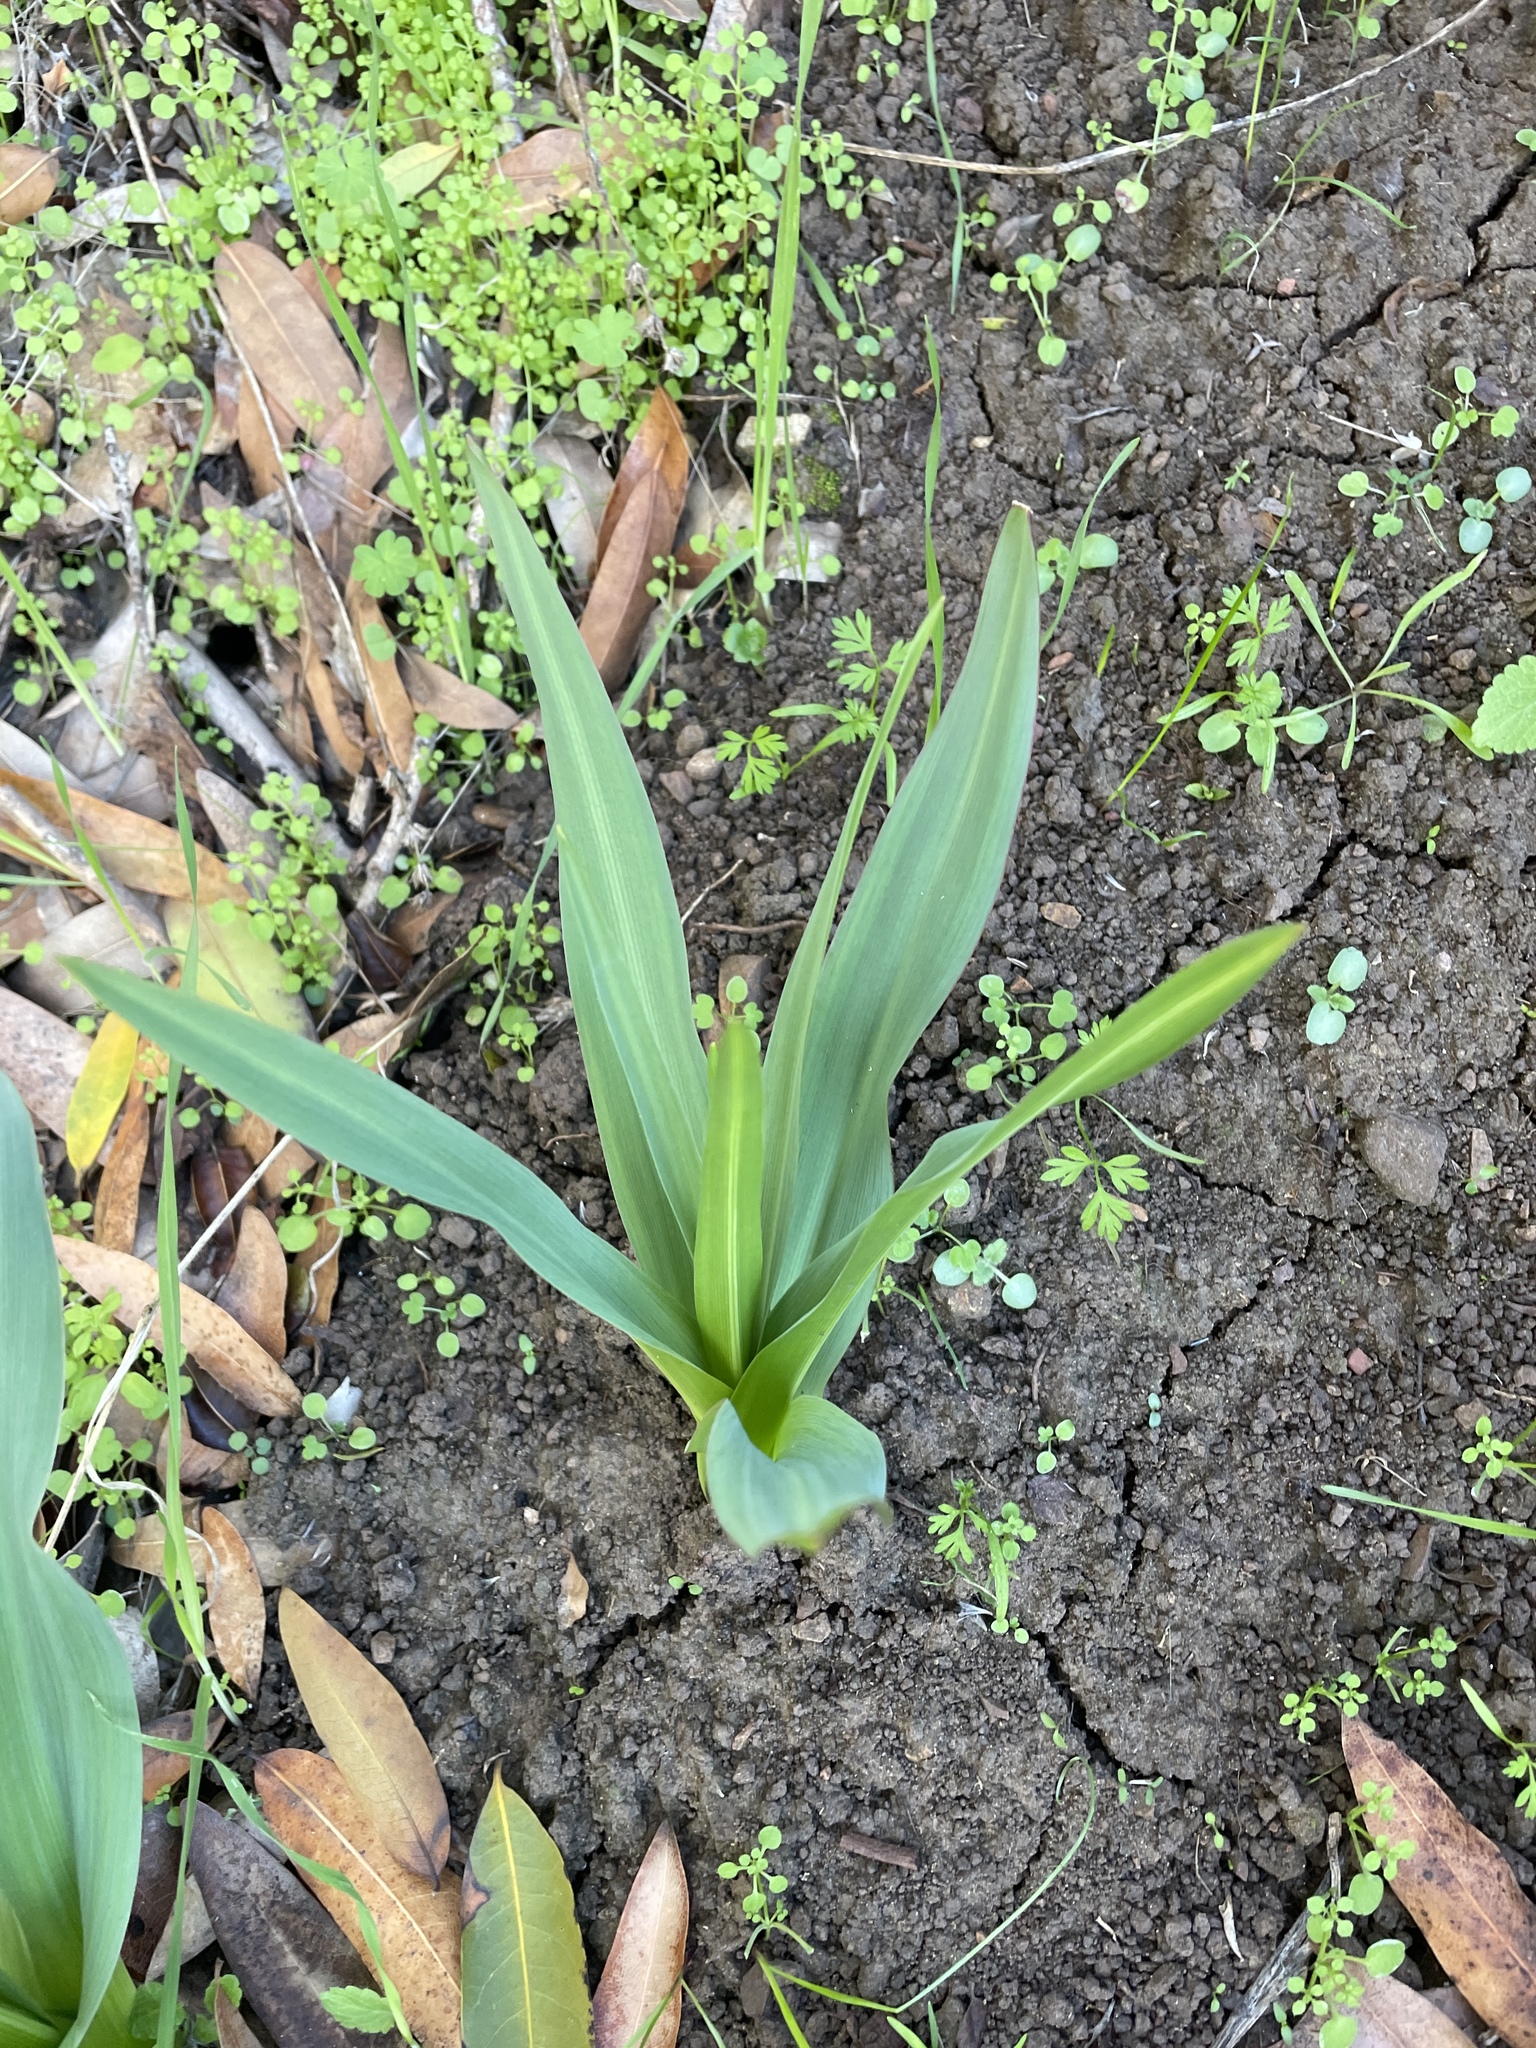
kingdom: Plantae
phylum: Tracheophyta
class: Liliopsida
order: Asparagales
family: Asparagaceae
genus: Chlorogalum
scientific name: Chlorogalum pomeridianum
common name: Amole
